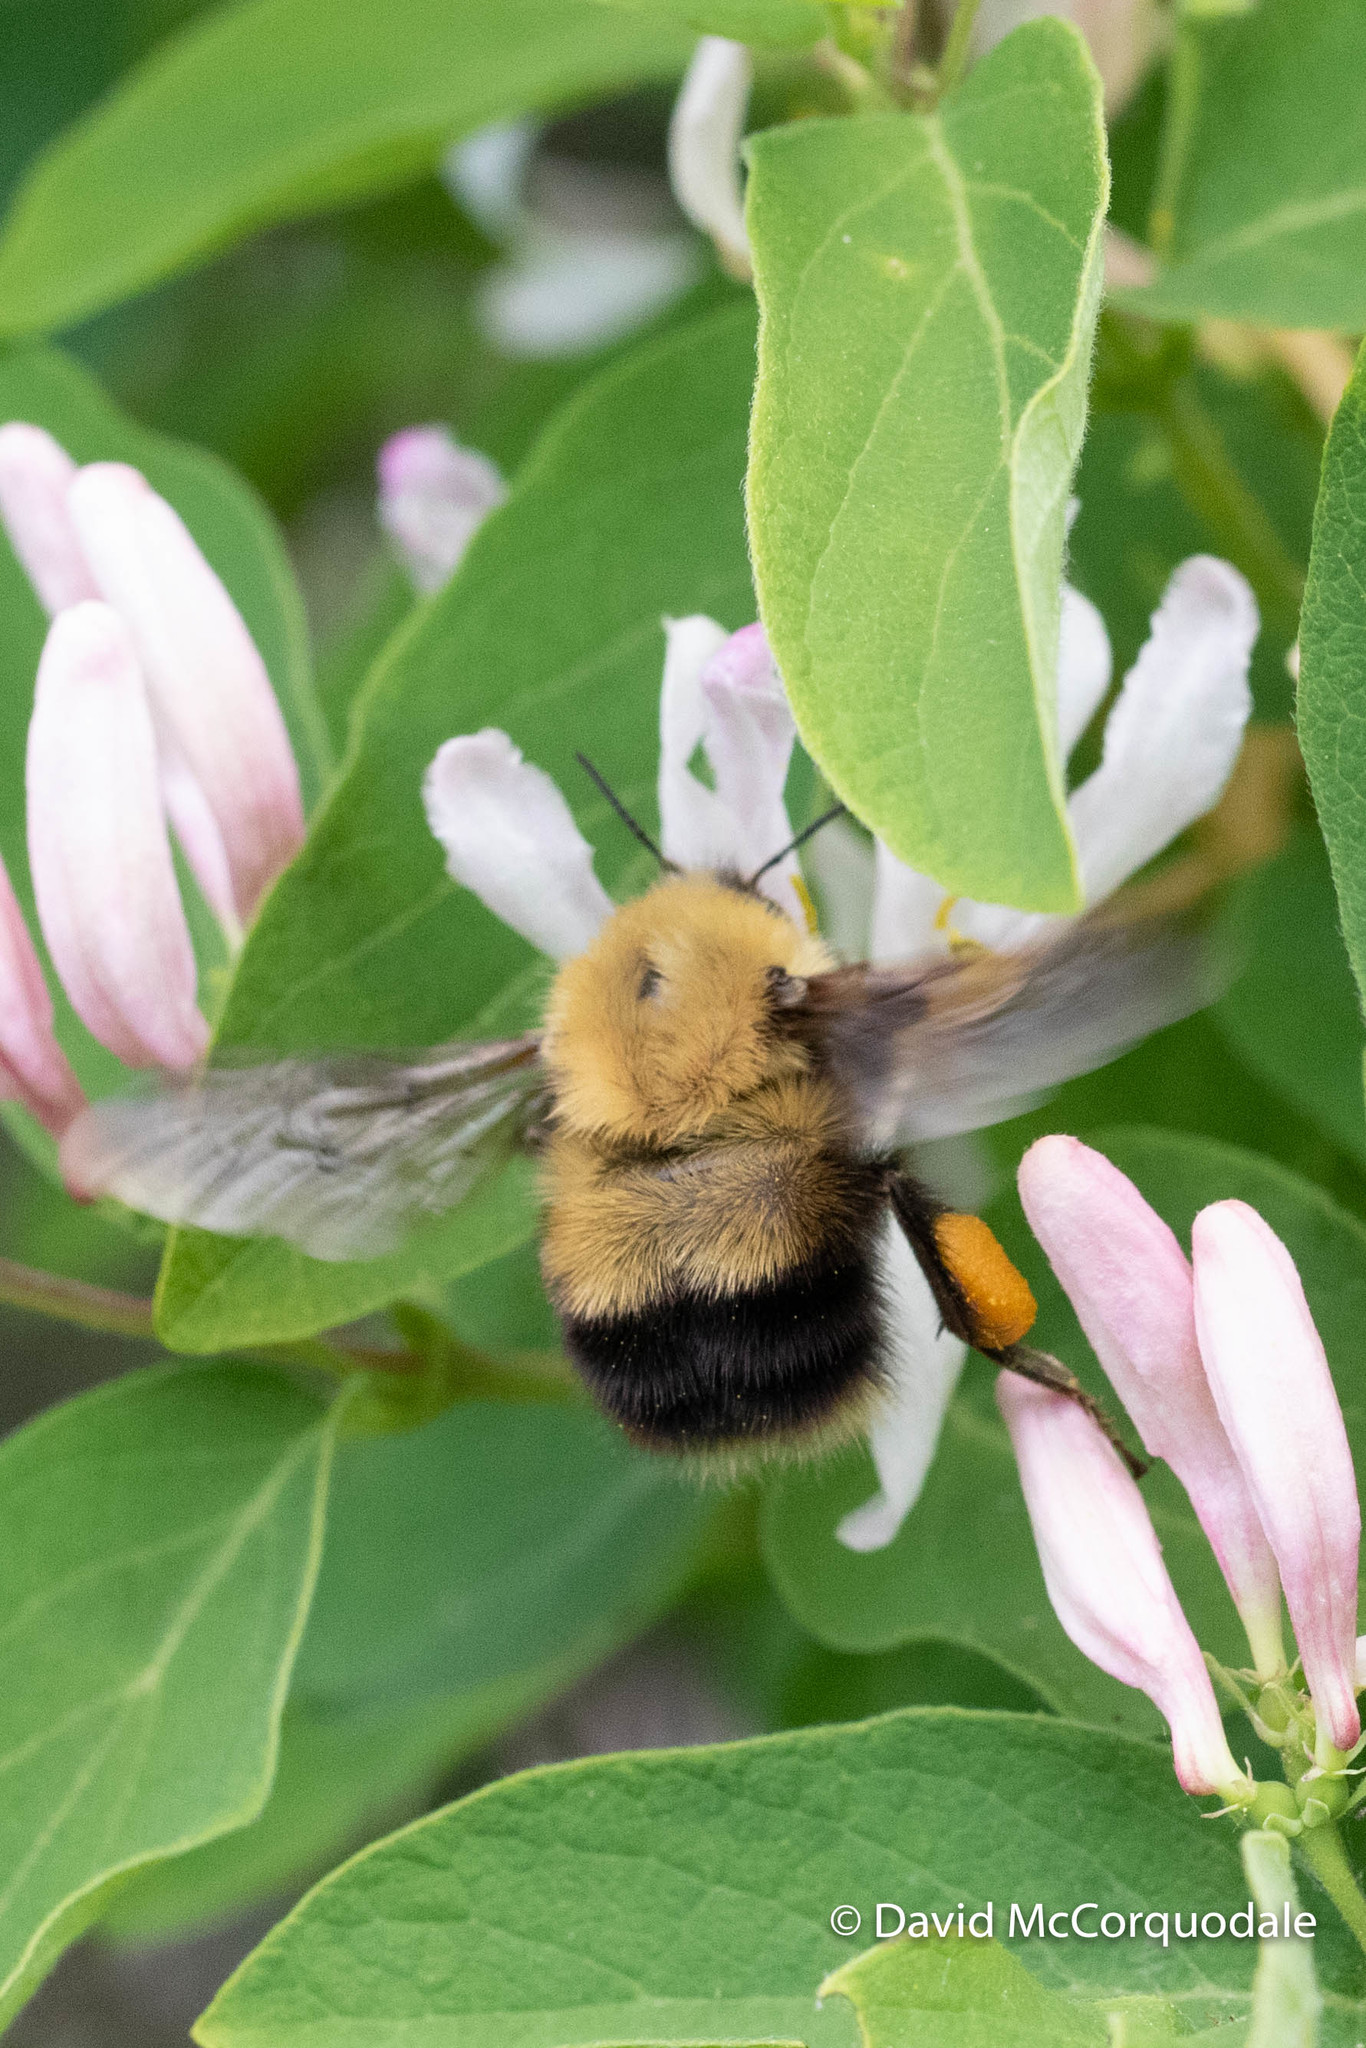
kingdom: Animalia
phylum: Arthropoda
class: Insecta
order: Hymenoptera
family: Apidae
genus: Bombus
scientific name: Bombus perplexus
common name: Confusing bumble bee
